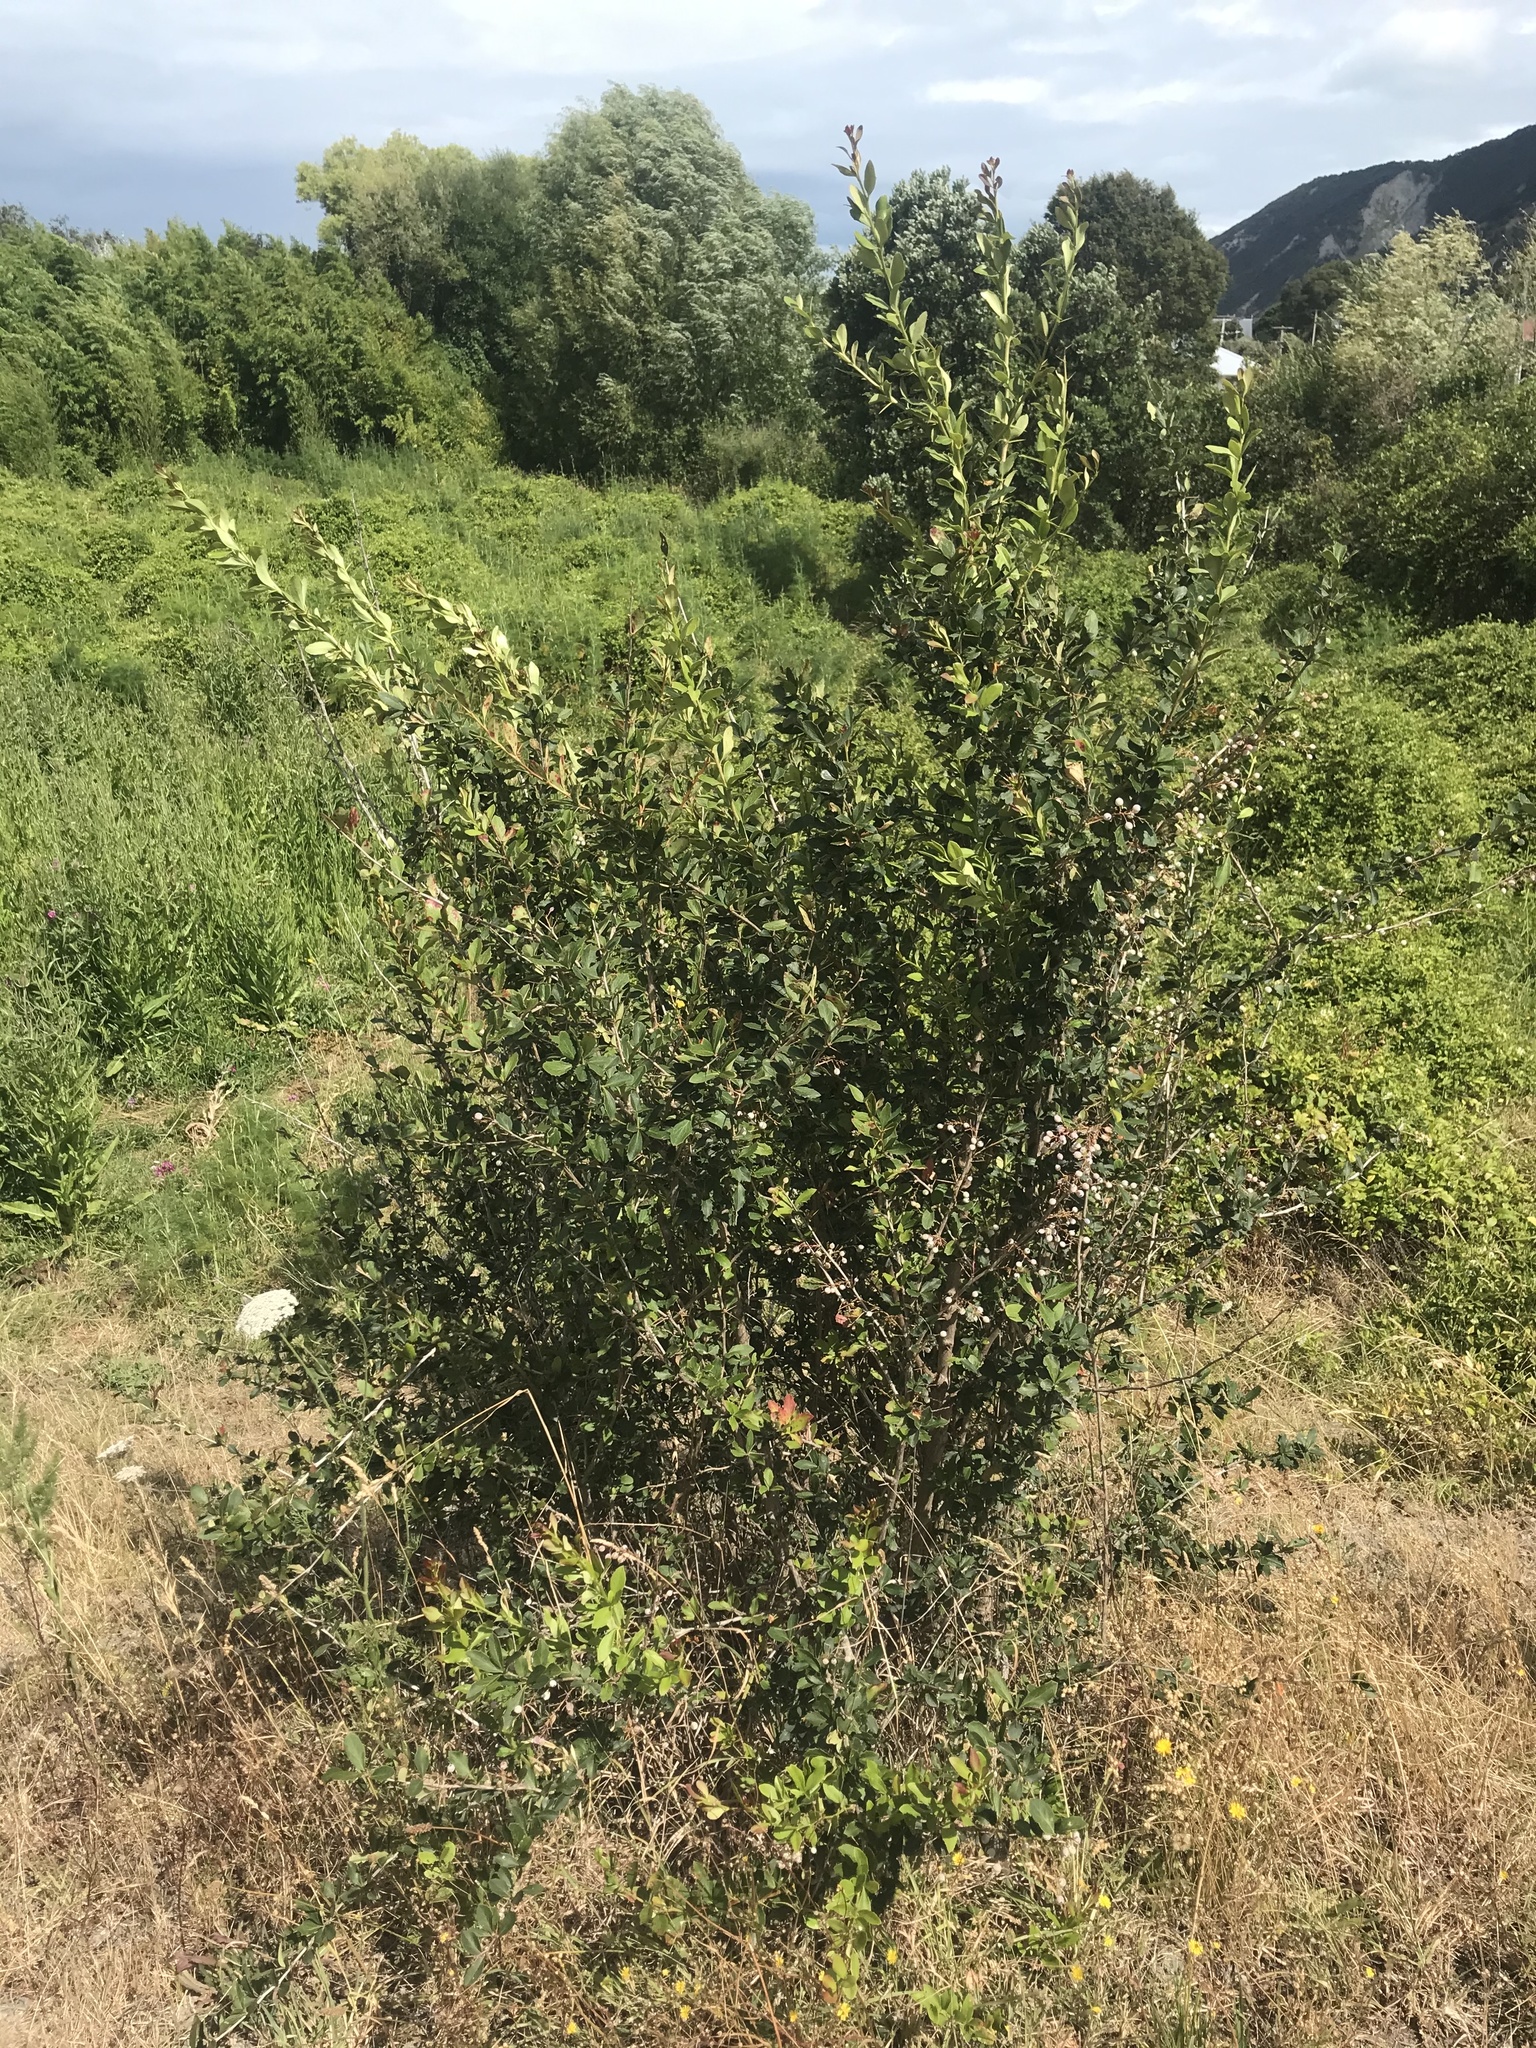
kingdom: Plantae
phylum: Tracheophyta
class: Magnoliopsida
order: Ranunculales
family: Berberidaceae
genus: Berberis
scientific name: Berberis glaucocarpa
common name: Great barberry
